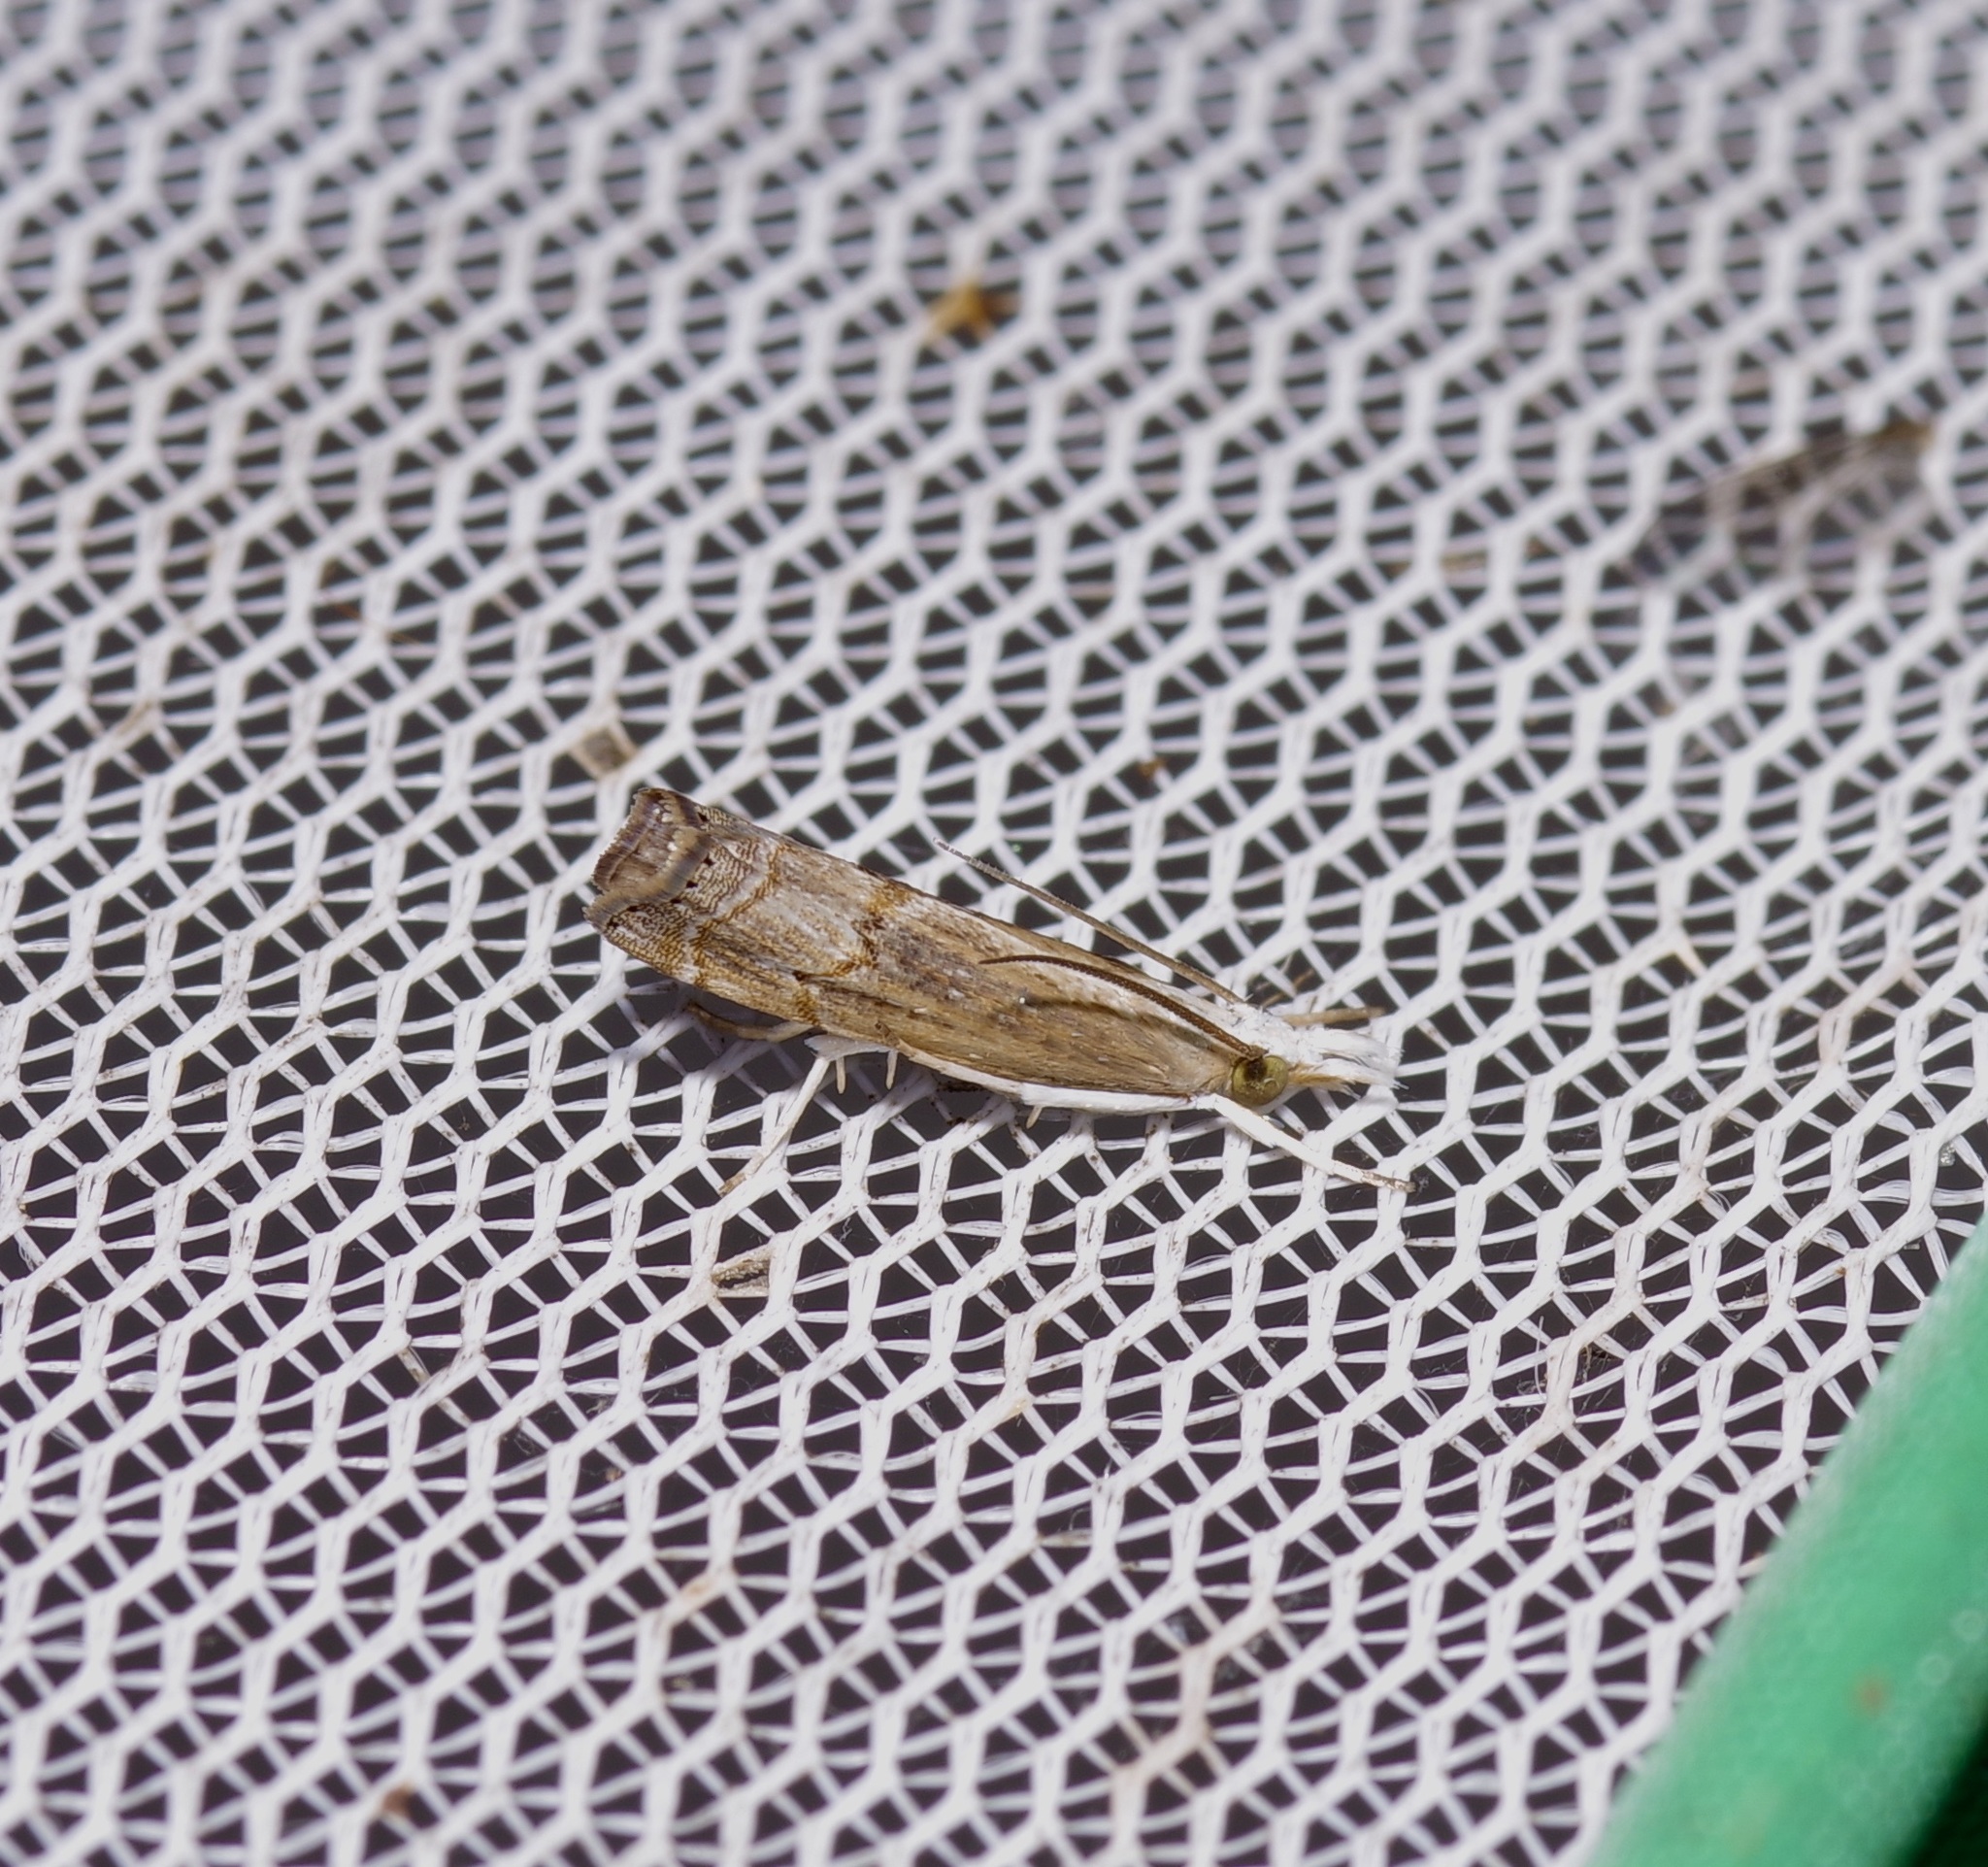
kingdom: Animalia
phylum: Arthropoda
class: Insecta
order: Lepidoptera
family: Crambidae
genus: Parapediasia
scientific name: Parapediasia teterellus
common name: Bluegrass webworm moth
